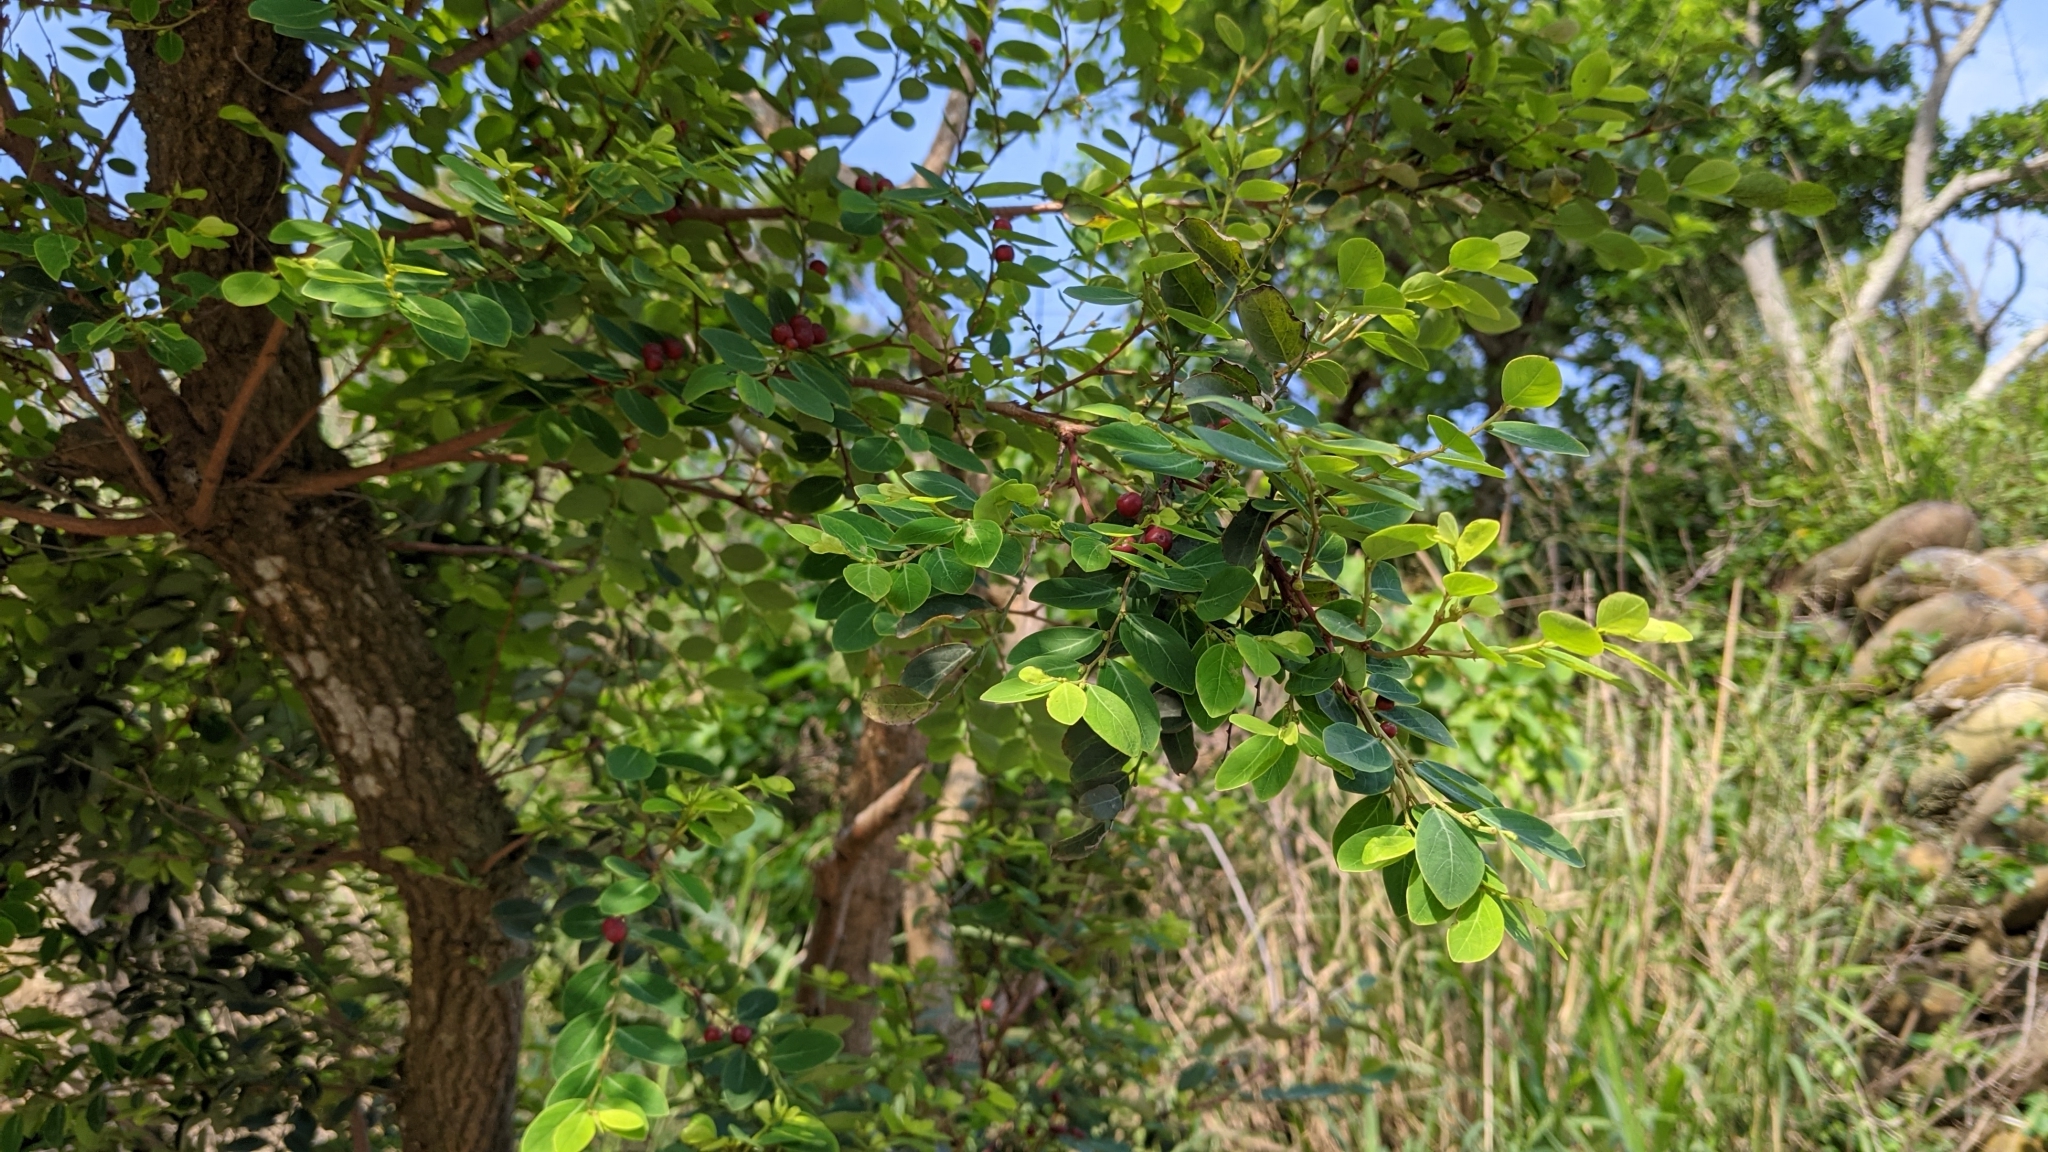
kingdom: Plantae
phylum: Tracheophyta
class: Magnoliopsida
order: Malpighiales
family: Phyllanthaceae
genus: Breynia
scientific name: Breynia vitis-idaea
